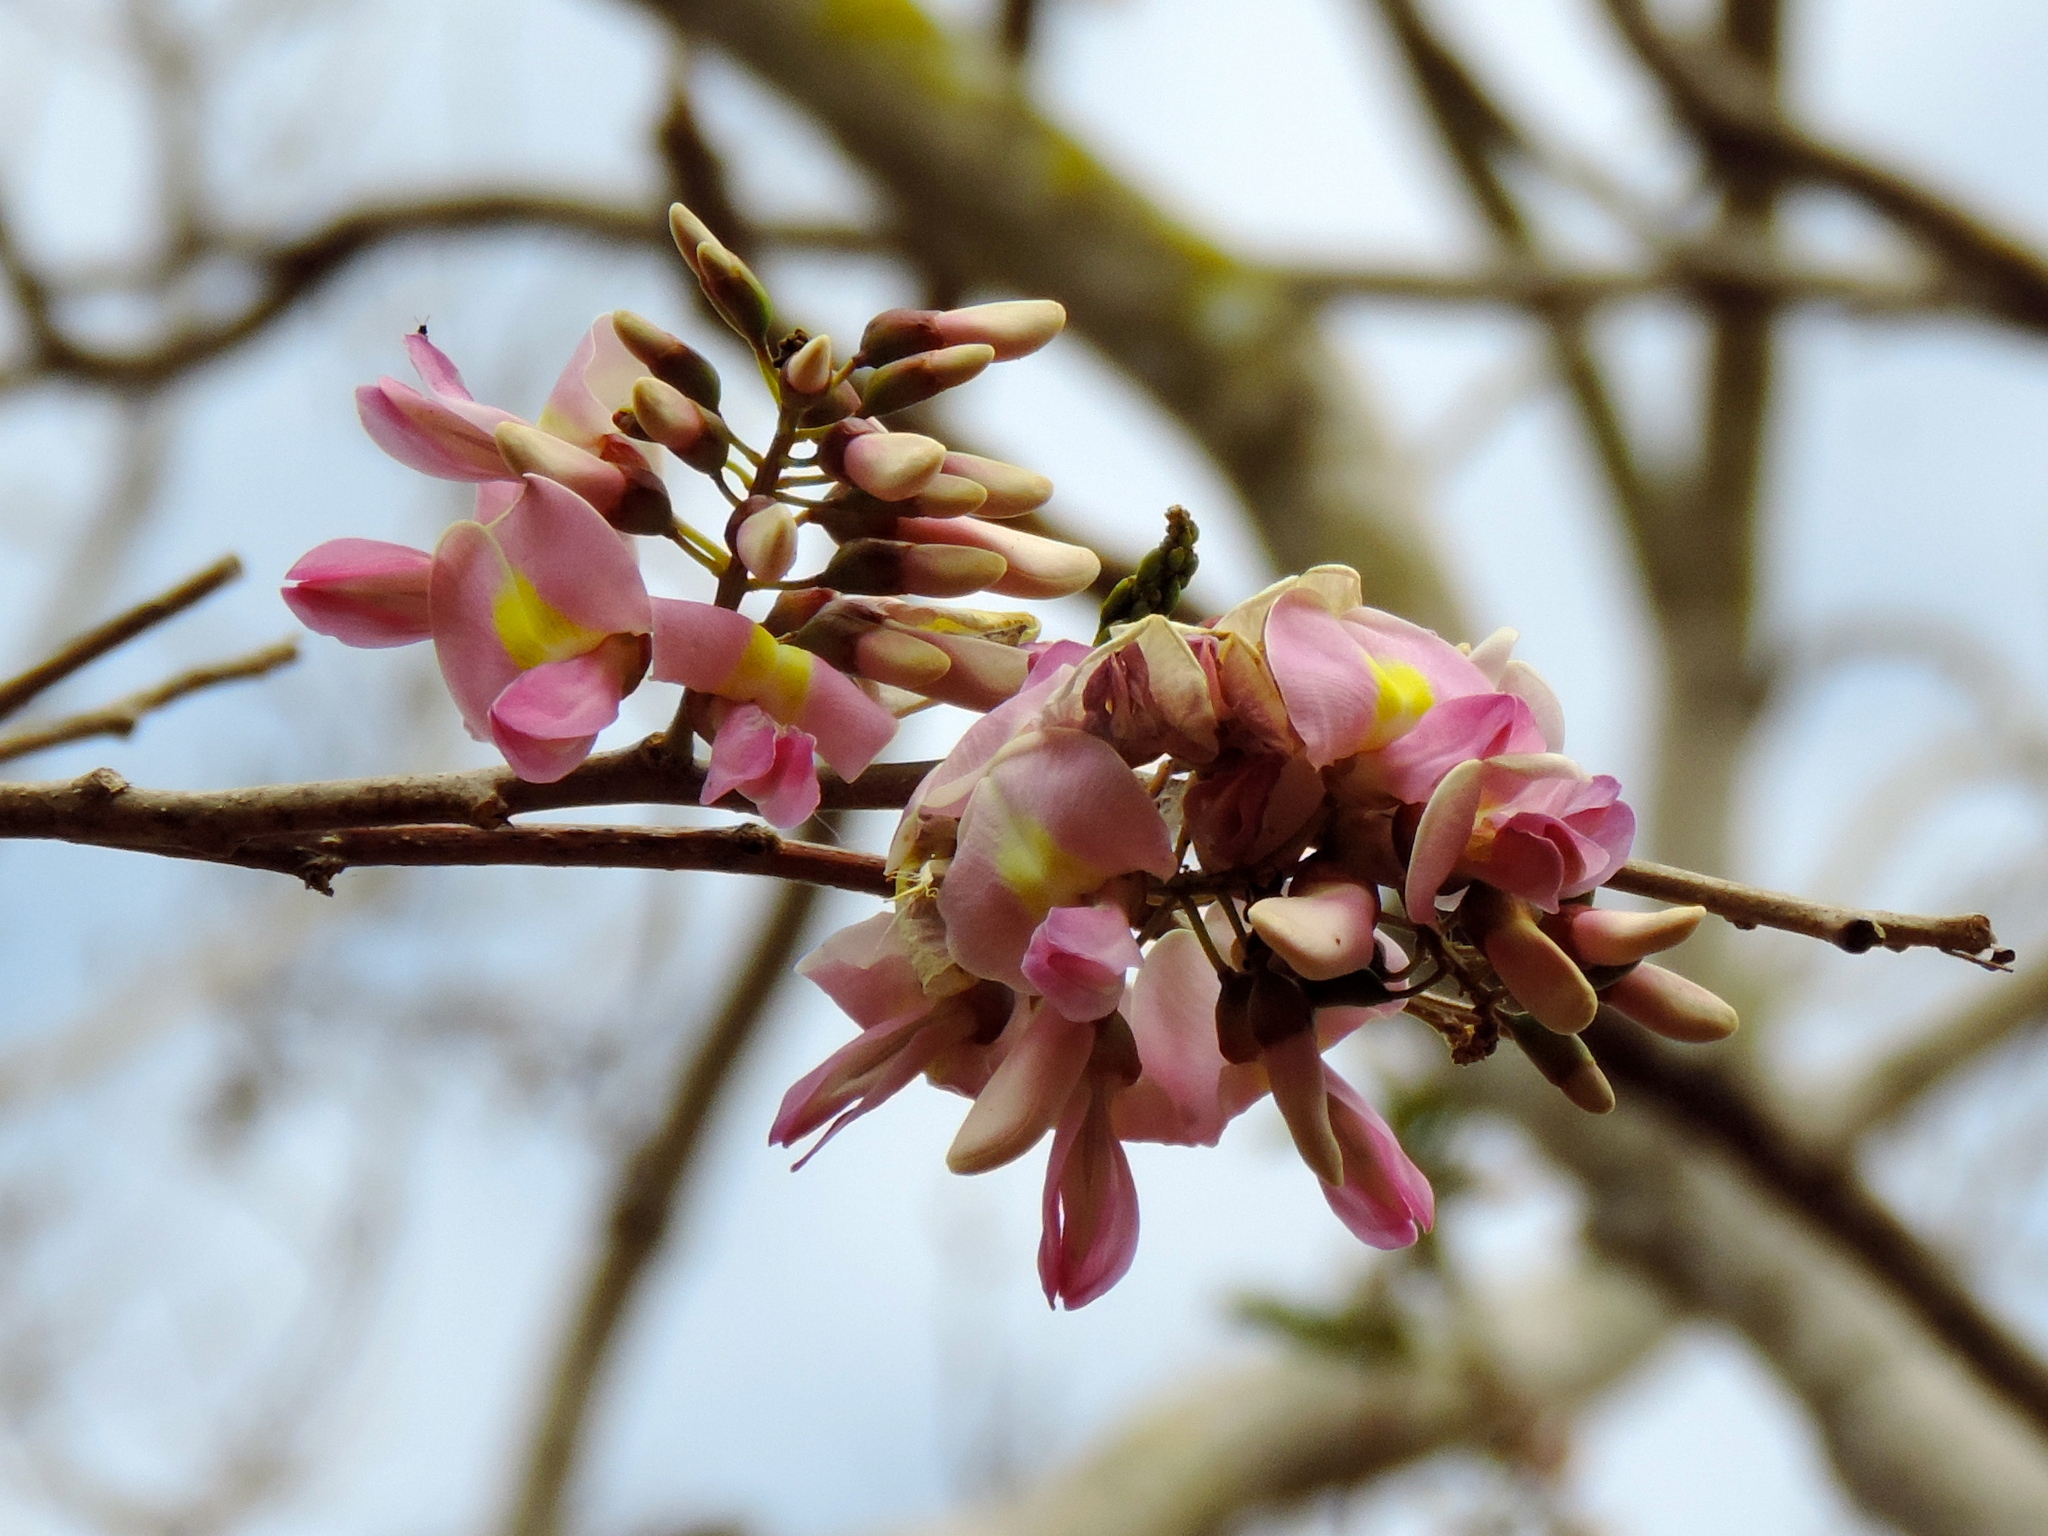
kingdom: Plantae
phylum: Tracheophyta
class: Magnoliopsida
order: Fabales
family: Fabaceae
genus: Gliricidia
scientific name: Gliricidia sepium
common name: Quickstick
